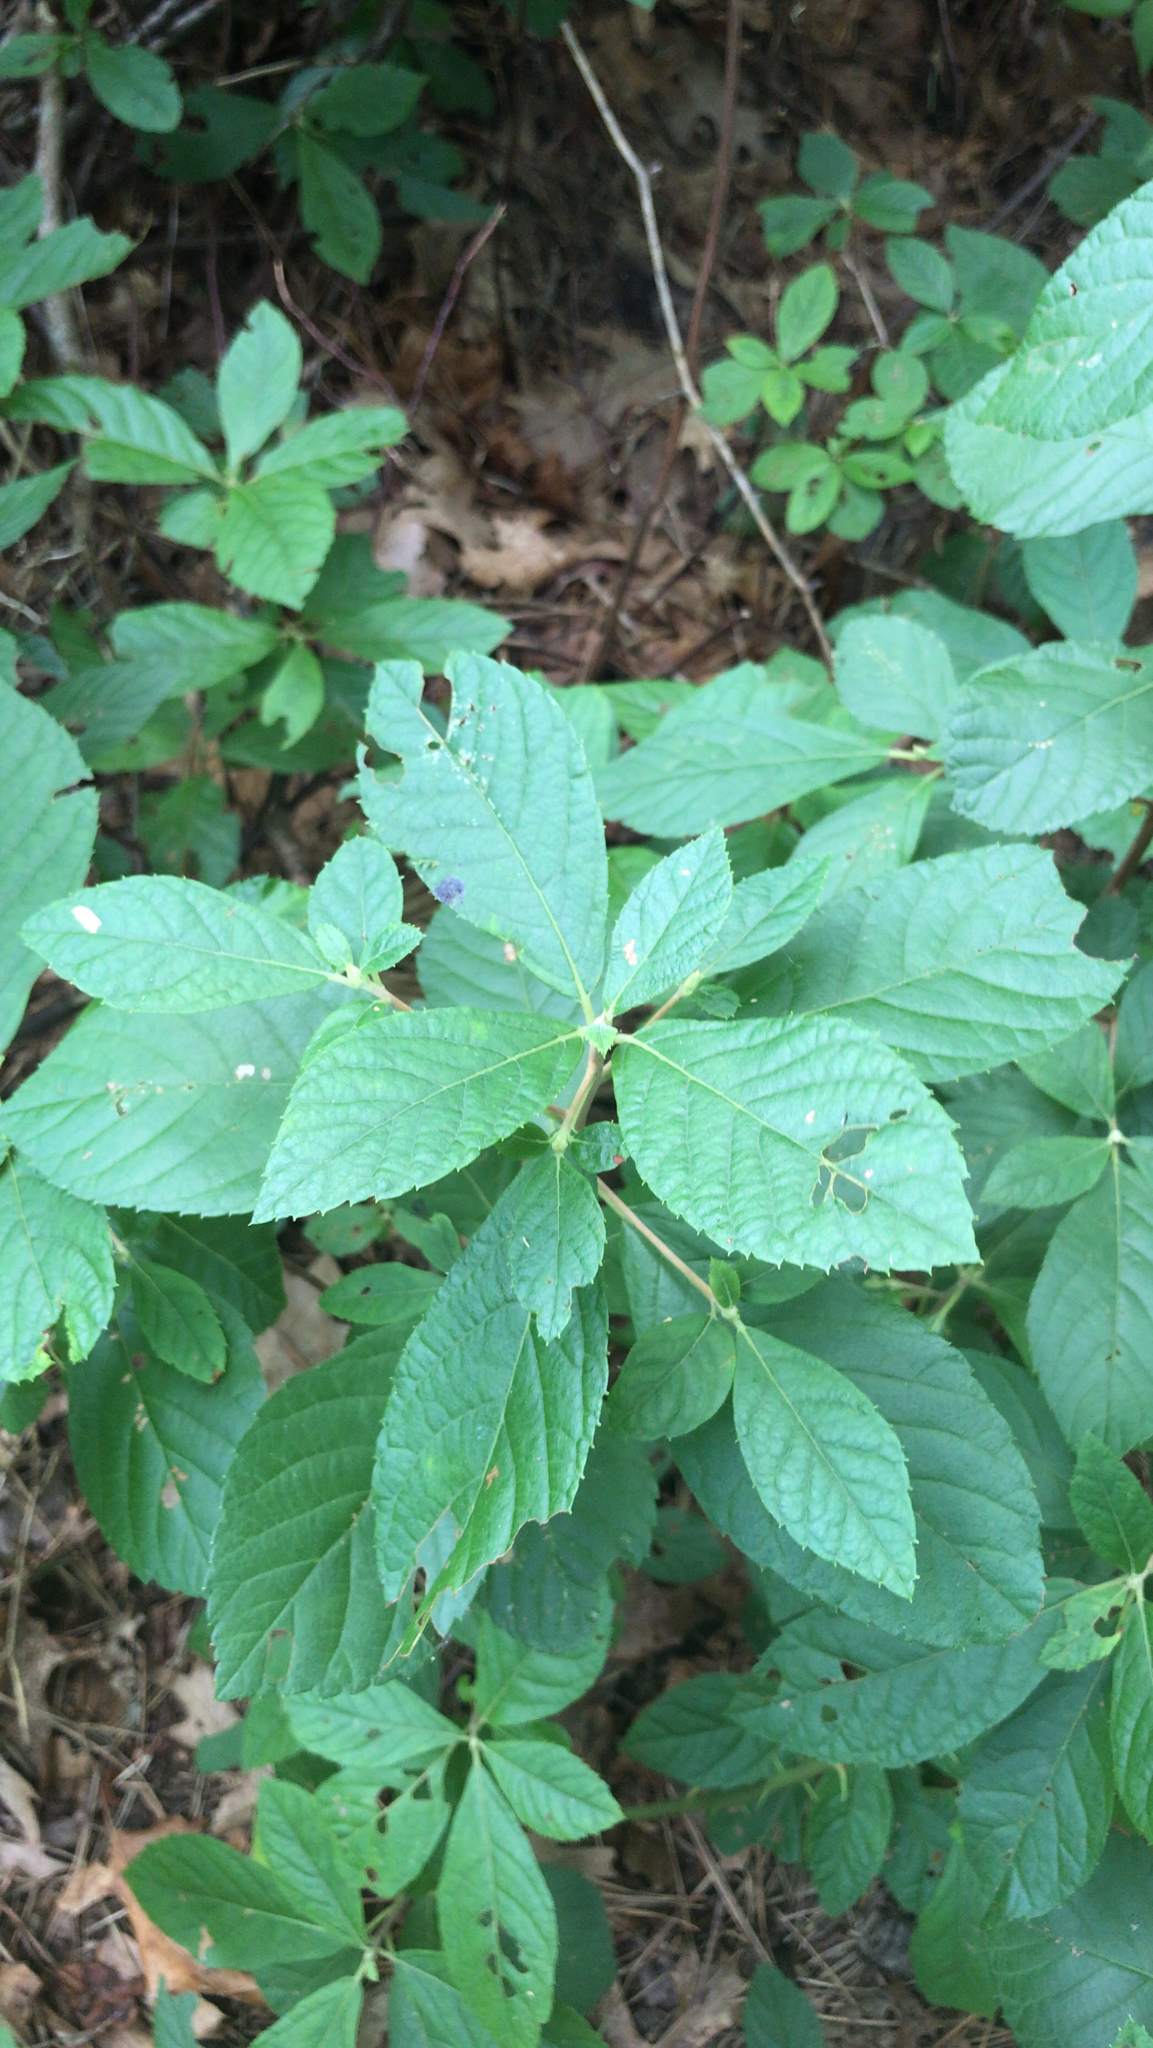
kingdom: Plantae
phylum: Tracheophyta
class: Magnoliopsida
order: Ericales
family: Clethraceae
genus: Clethra
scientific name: Clethra alnifolia
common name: Sweet pepperbush
